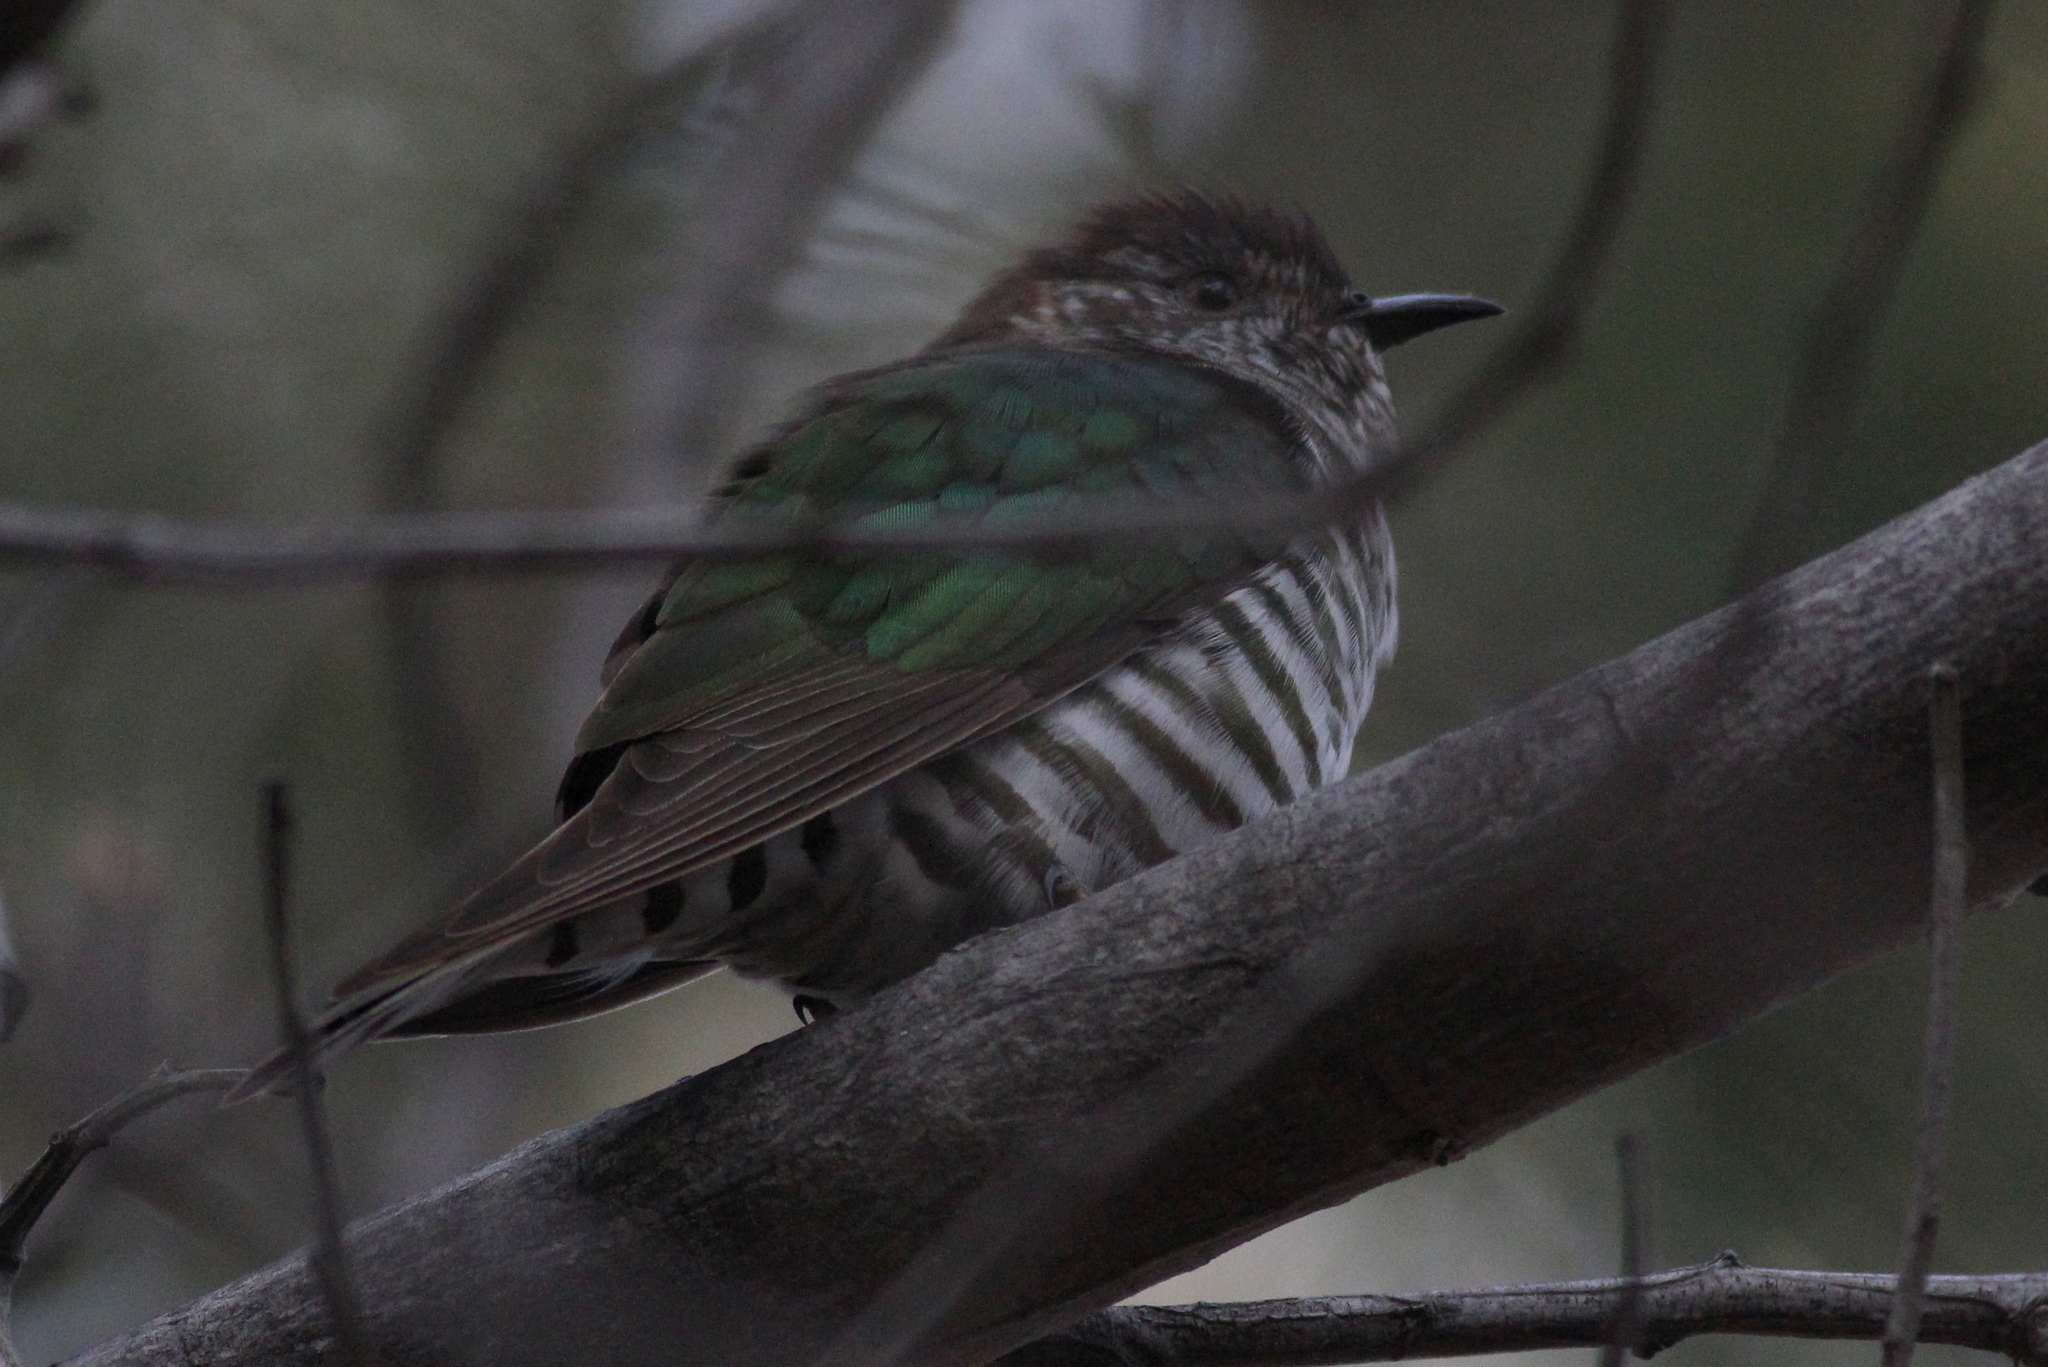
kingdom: Animalia
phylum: Chordata
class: Aves
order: Cuculiformes
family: Cuculidae
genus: Chrysococcyx
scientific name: Chrysococcyx lucidus
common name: Shining bronze cuckoo
